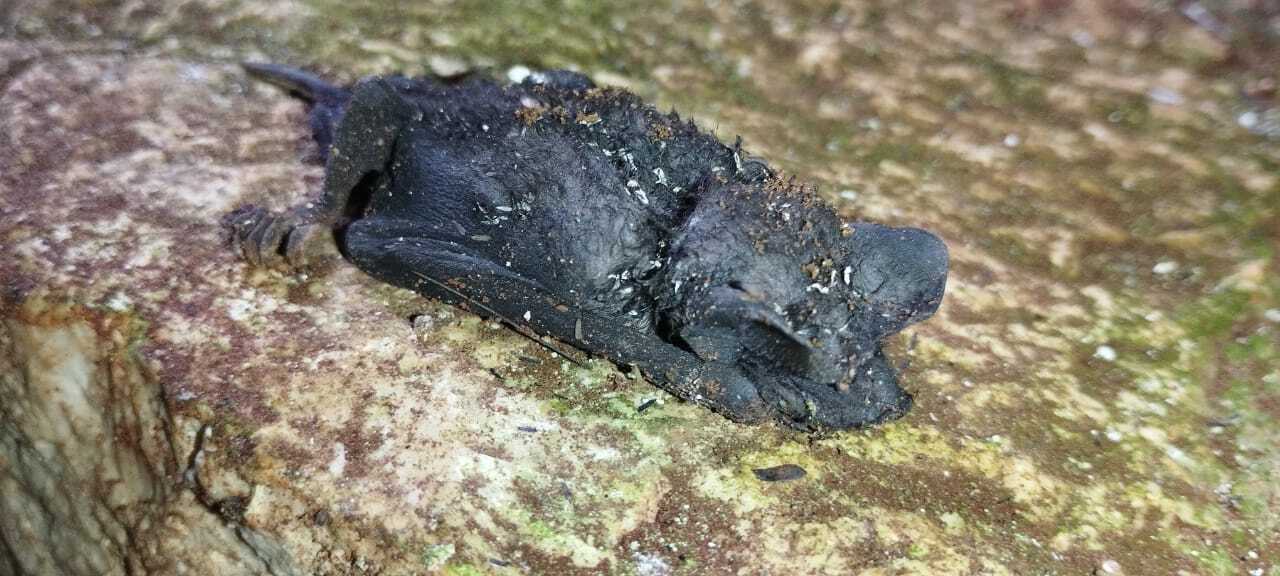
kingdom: Animalia
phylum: Chordata
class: Mammalia
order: Chiroptera
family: Molossidae
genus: Molossus
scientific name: Molossus nigricans
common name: Northern black mastiff bat
